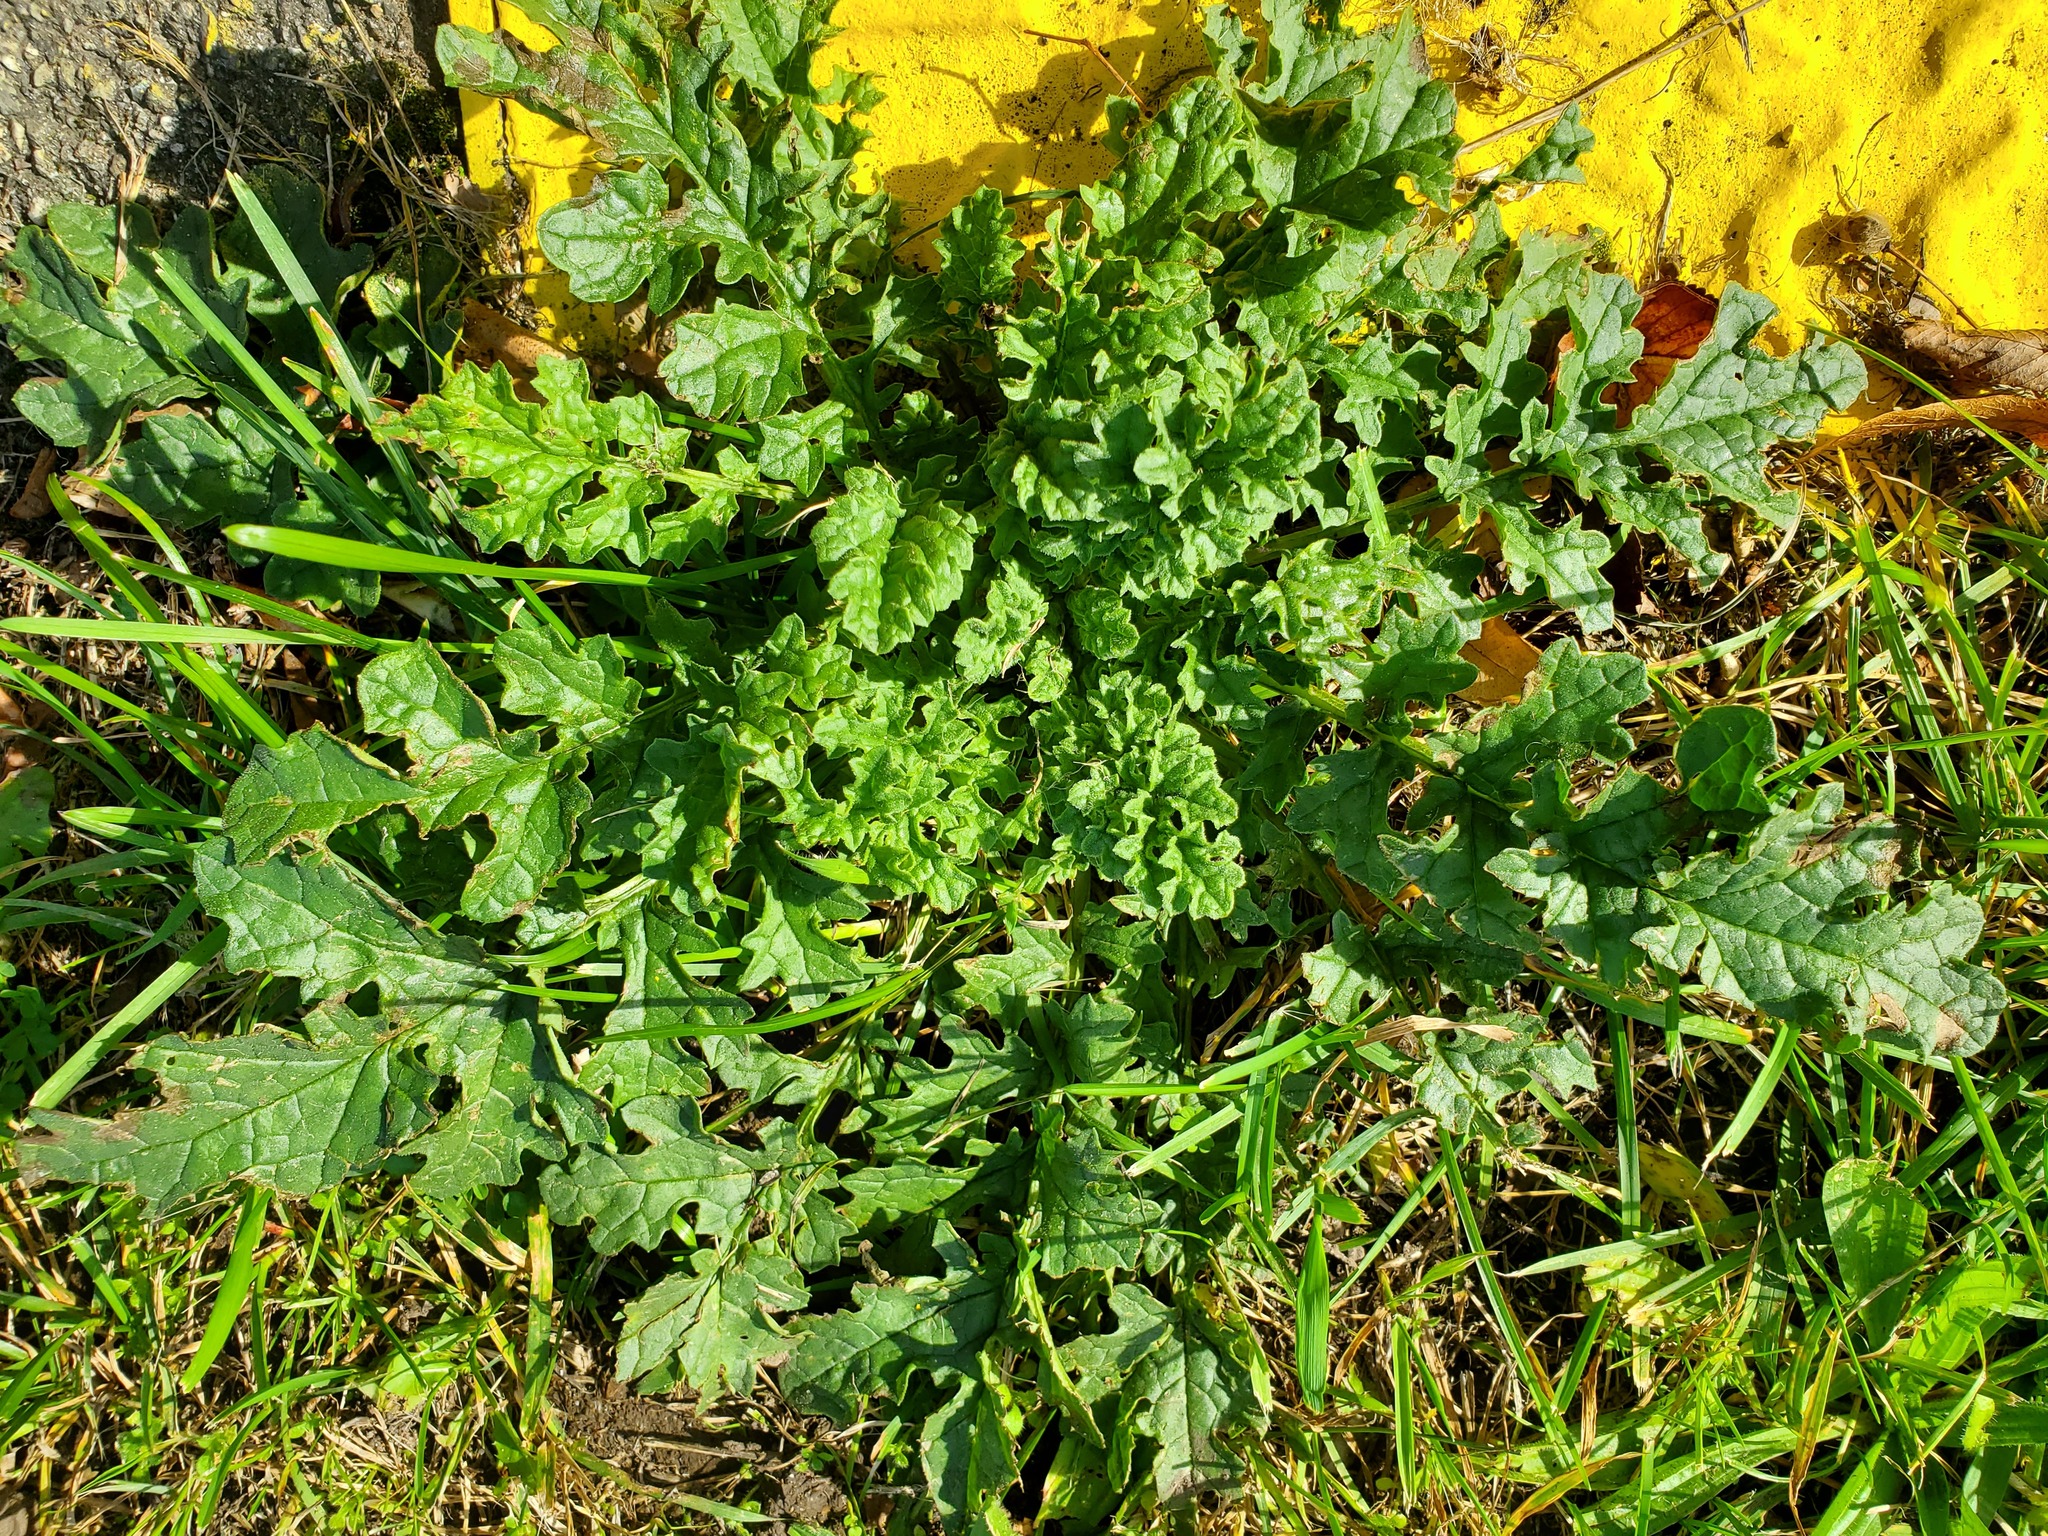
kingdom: Plantae
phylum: Tracheophyta
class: Magnoliopsida
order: Asterales
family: Asteraceae
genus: Jacobaea
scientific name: Jacobaea vulgaris
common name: Stinking willie
